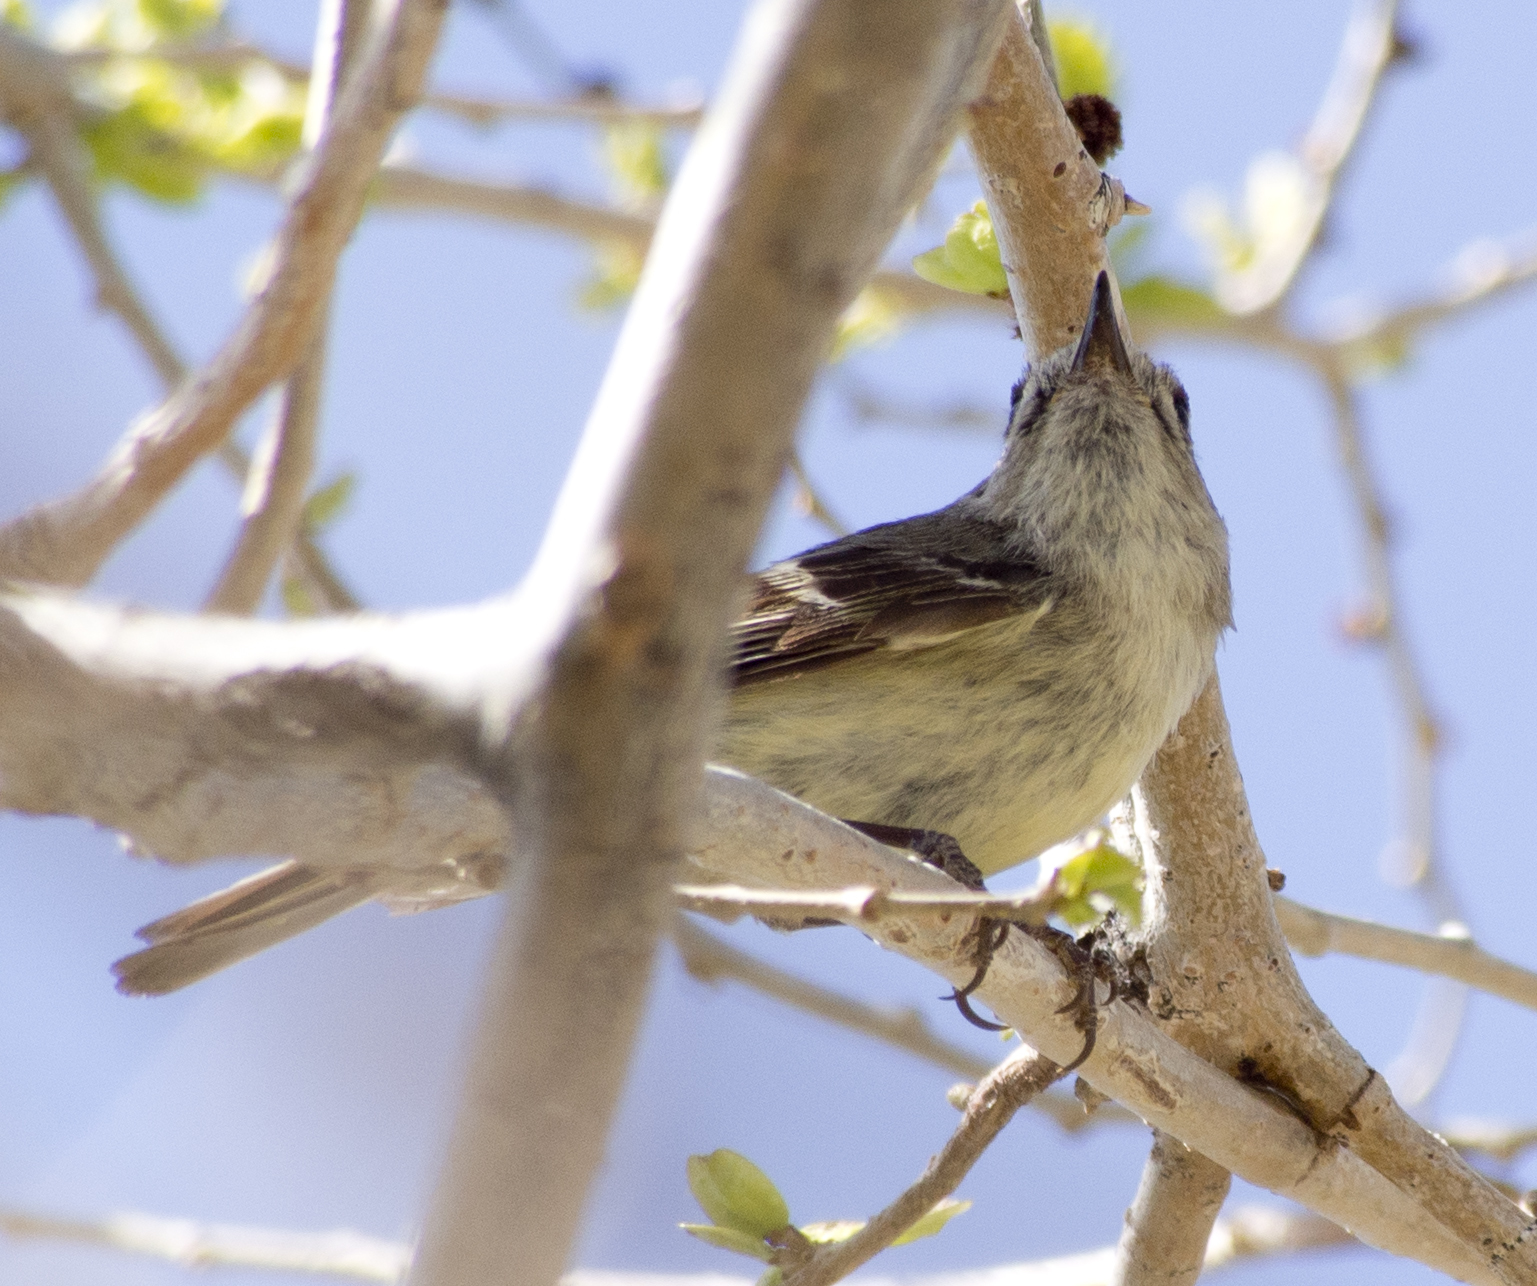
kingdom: Animalia
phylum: Chordata
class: Aves
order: Passeriformes
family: Regulidae
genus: Regulus
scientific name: Regulus calendula
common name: Ruby-crowned kinglet
